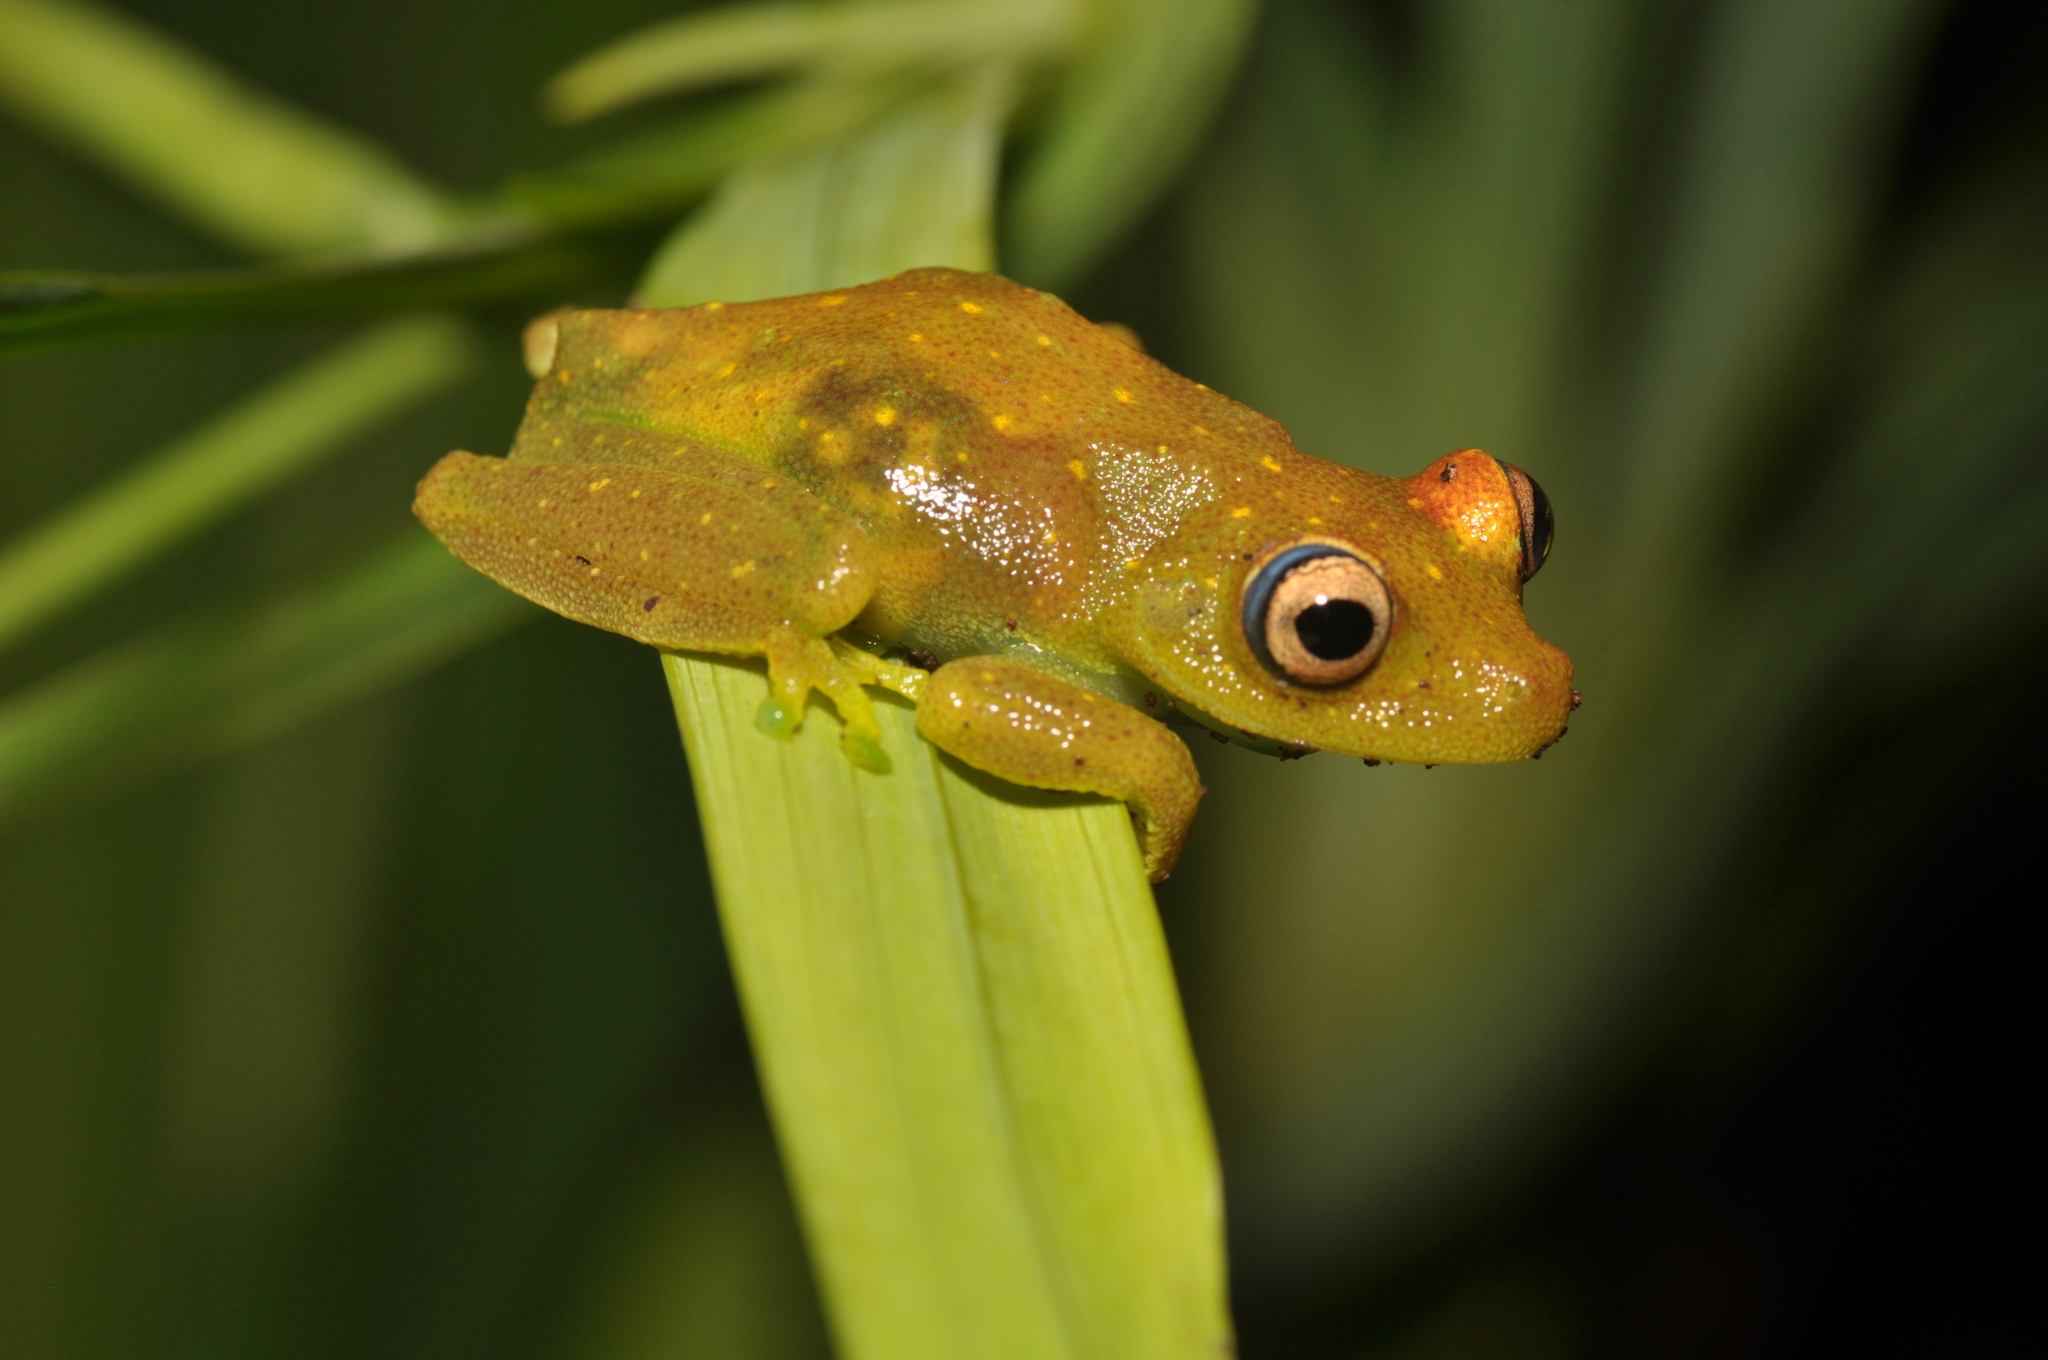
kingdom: Animalia
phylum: Chordata
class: Amphibia
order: Anura
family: Hylidae
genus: Boana
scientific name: Boana cinerascens
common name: Demerara falls treefrog
